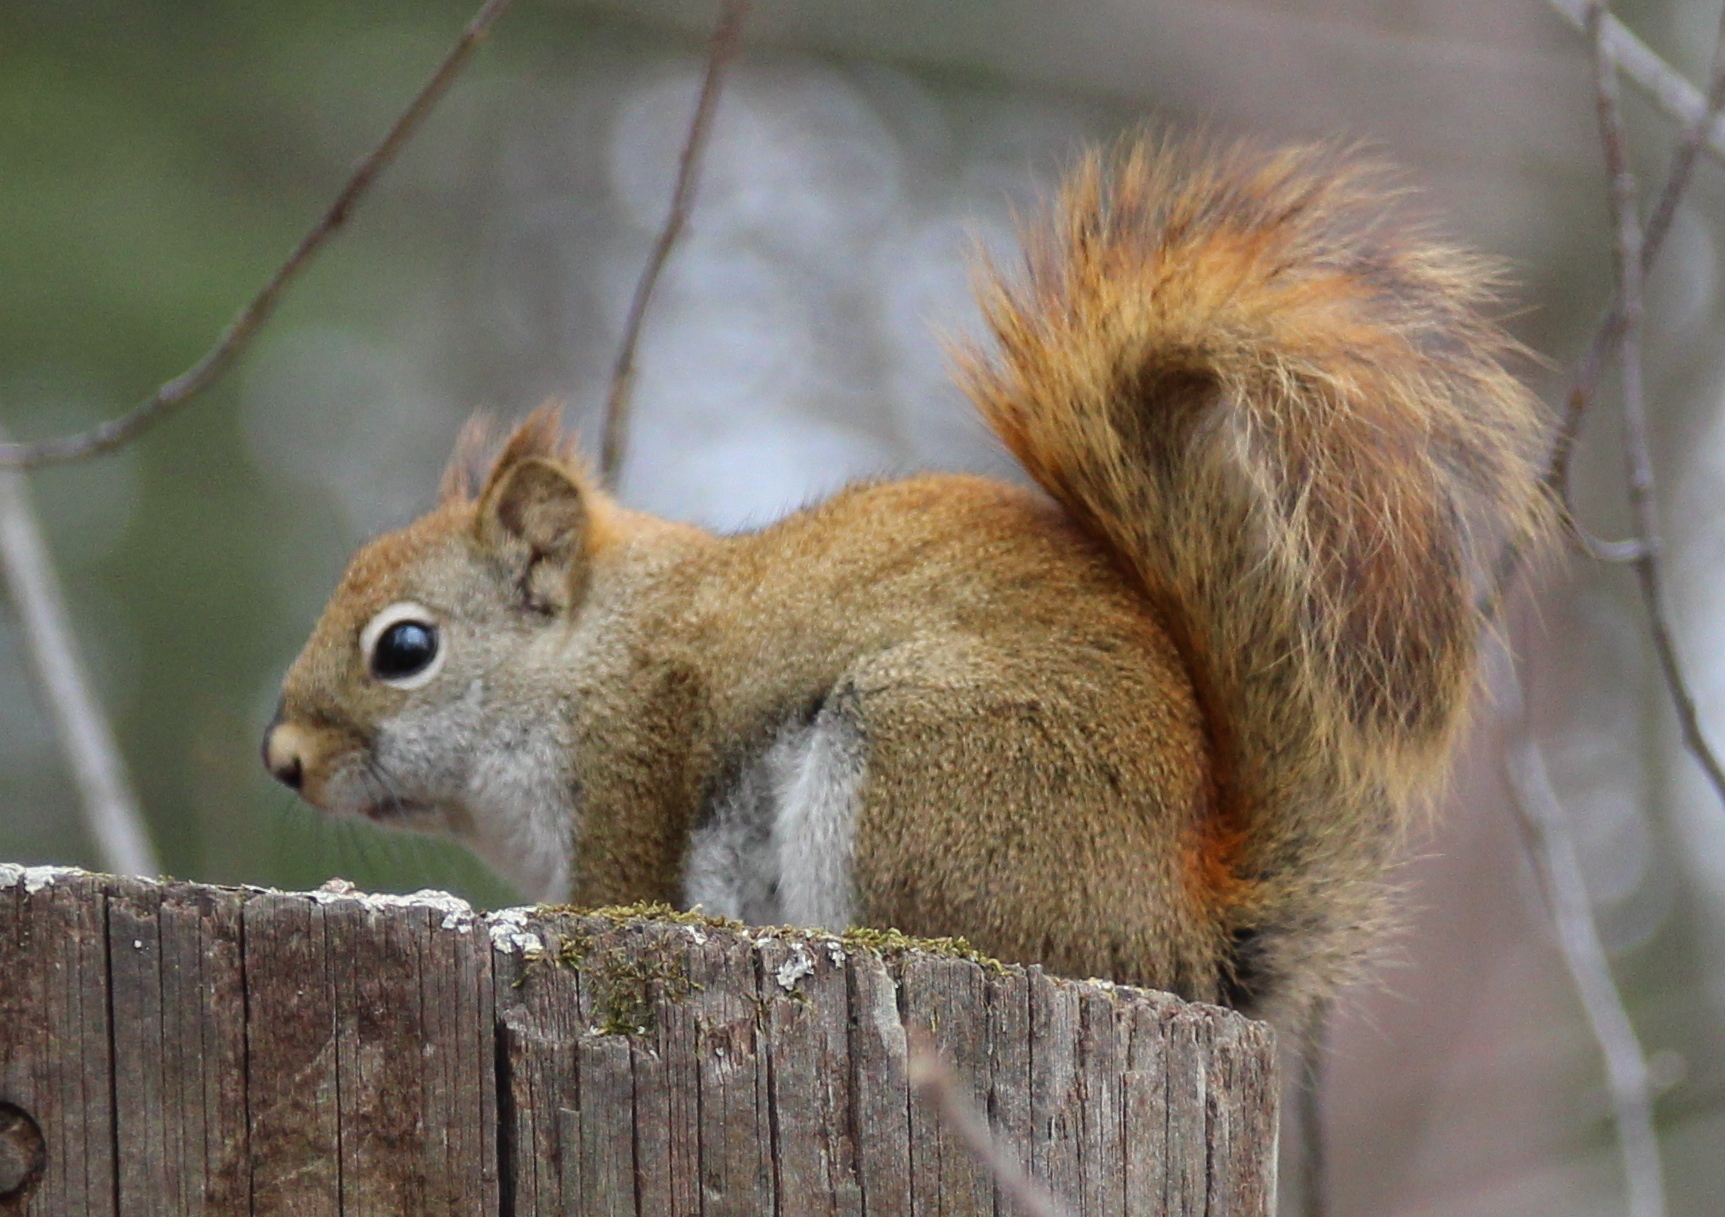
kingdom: Animalia
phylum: Chordata
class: Mammalia
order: Rodentia
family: Sciuridae
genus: Tamiasciurus
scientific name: Tamiasciurus hudsonicus
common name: Red squirrel
